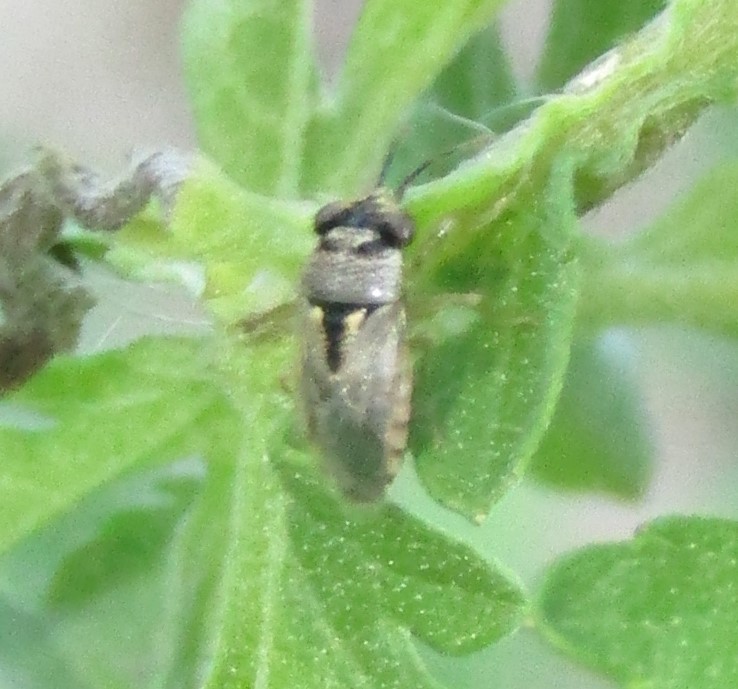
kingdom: Animalia
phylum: Arthropoda
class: Insecta
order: Hemiptera
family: Geocoridae
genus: Geocoris
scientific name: Geocoris punctipes
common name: Big-eyed bug
